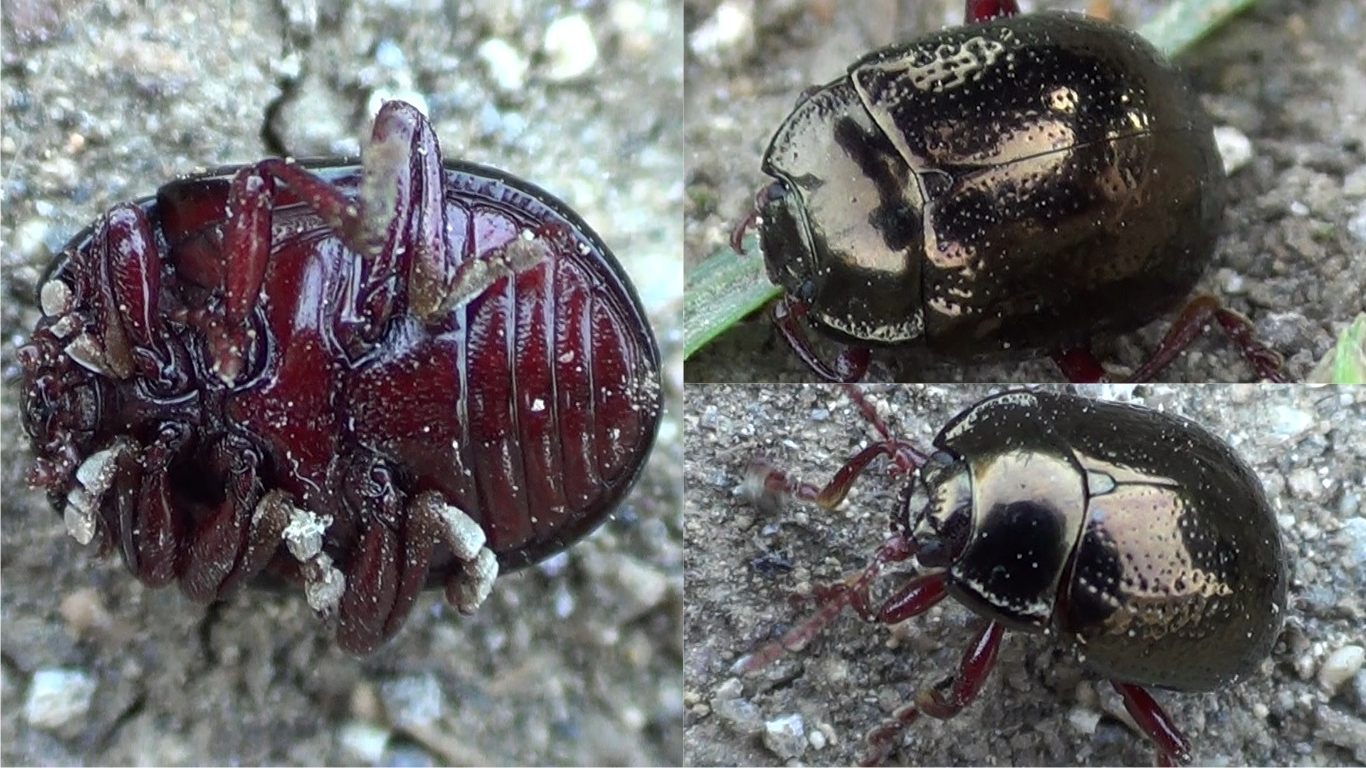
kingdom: Animalia
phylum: Arthropoda
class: Insecta
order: Coleoptera
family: Chrysomelidae
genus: Chrysolina
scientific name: Chrysolina bankii
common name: Leaf beetle
